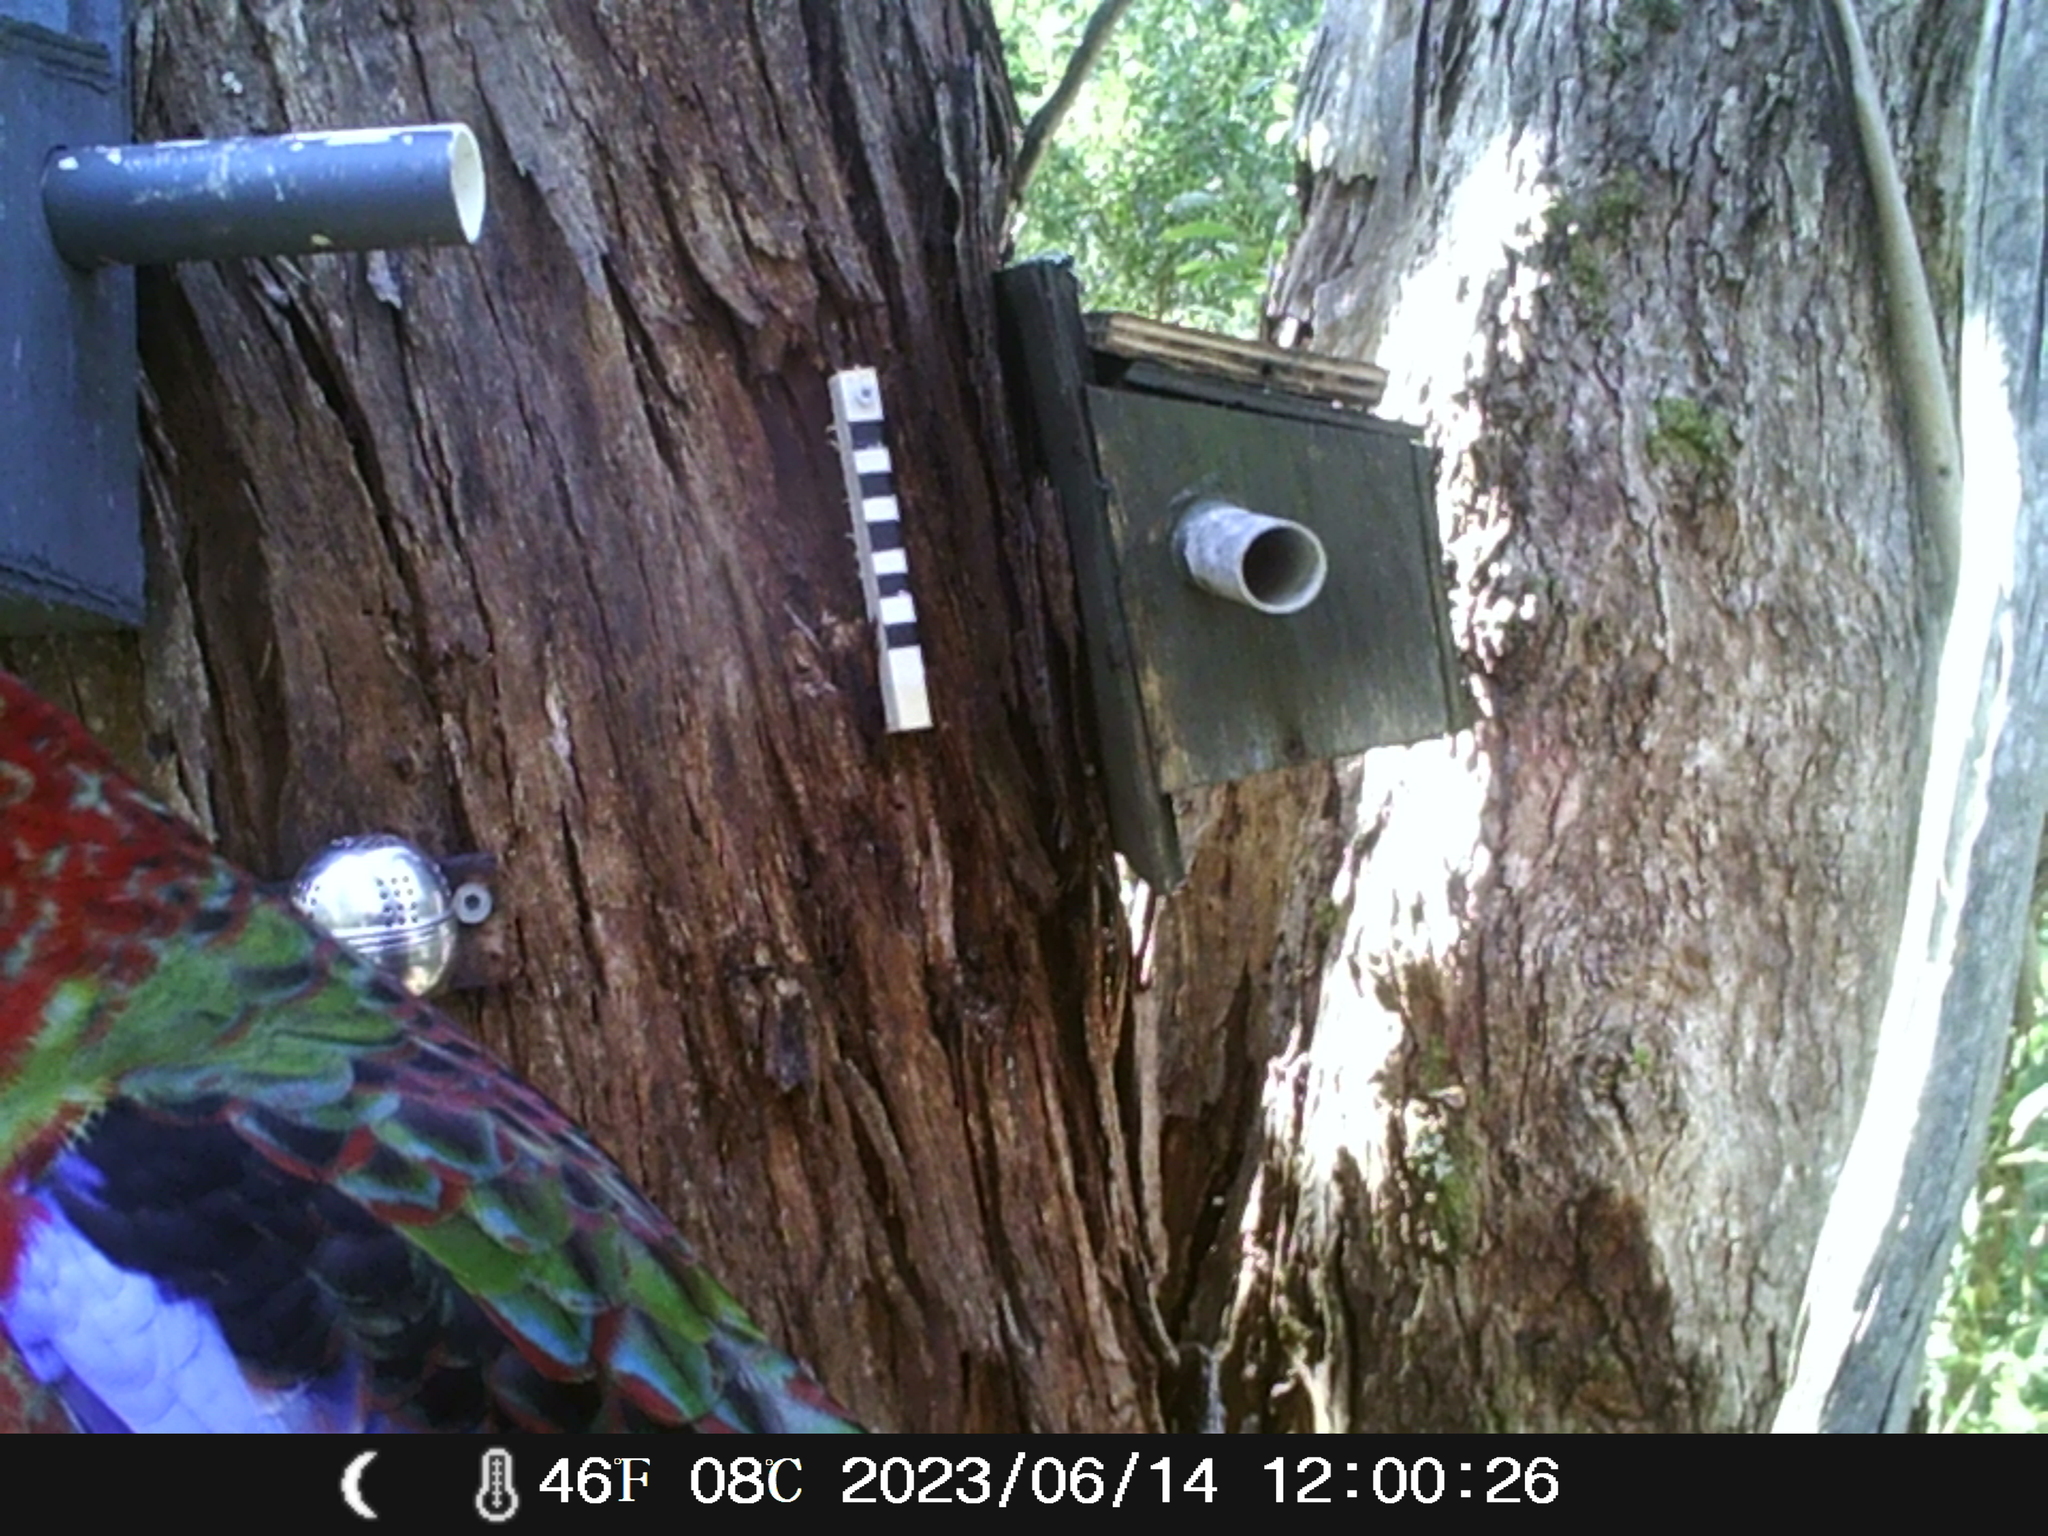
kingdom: Animalia
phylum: Chordata
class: Aves
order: Psittaciformes
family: Psittacidae
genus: Platycercus
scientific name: Platycercus elegans
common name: Crimson rosella
